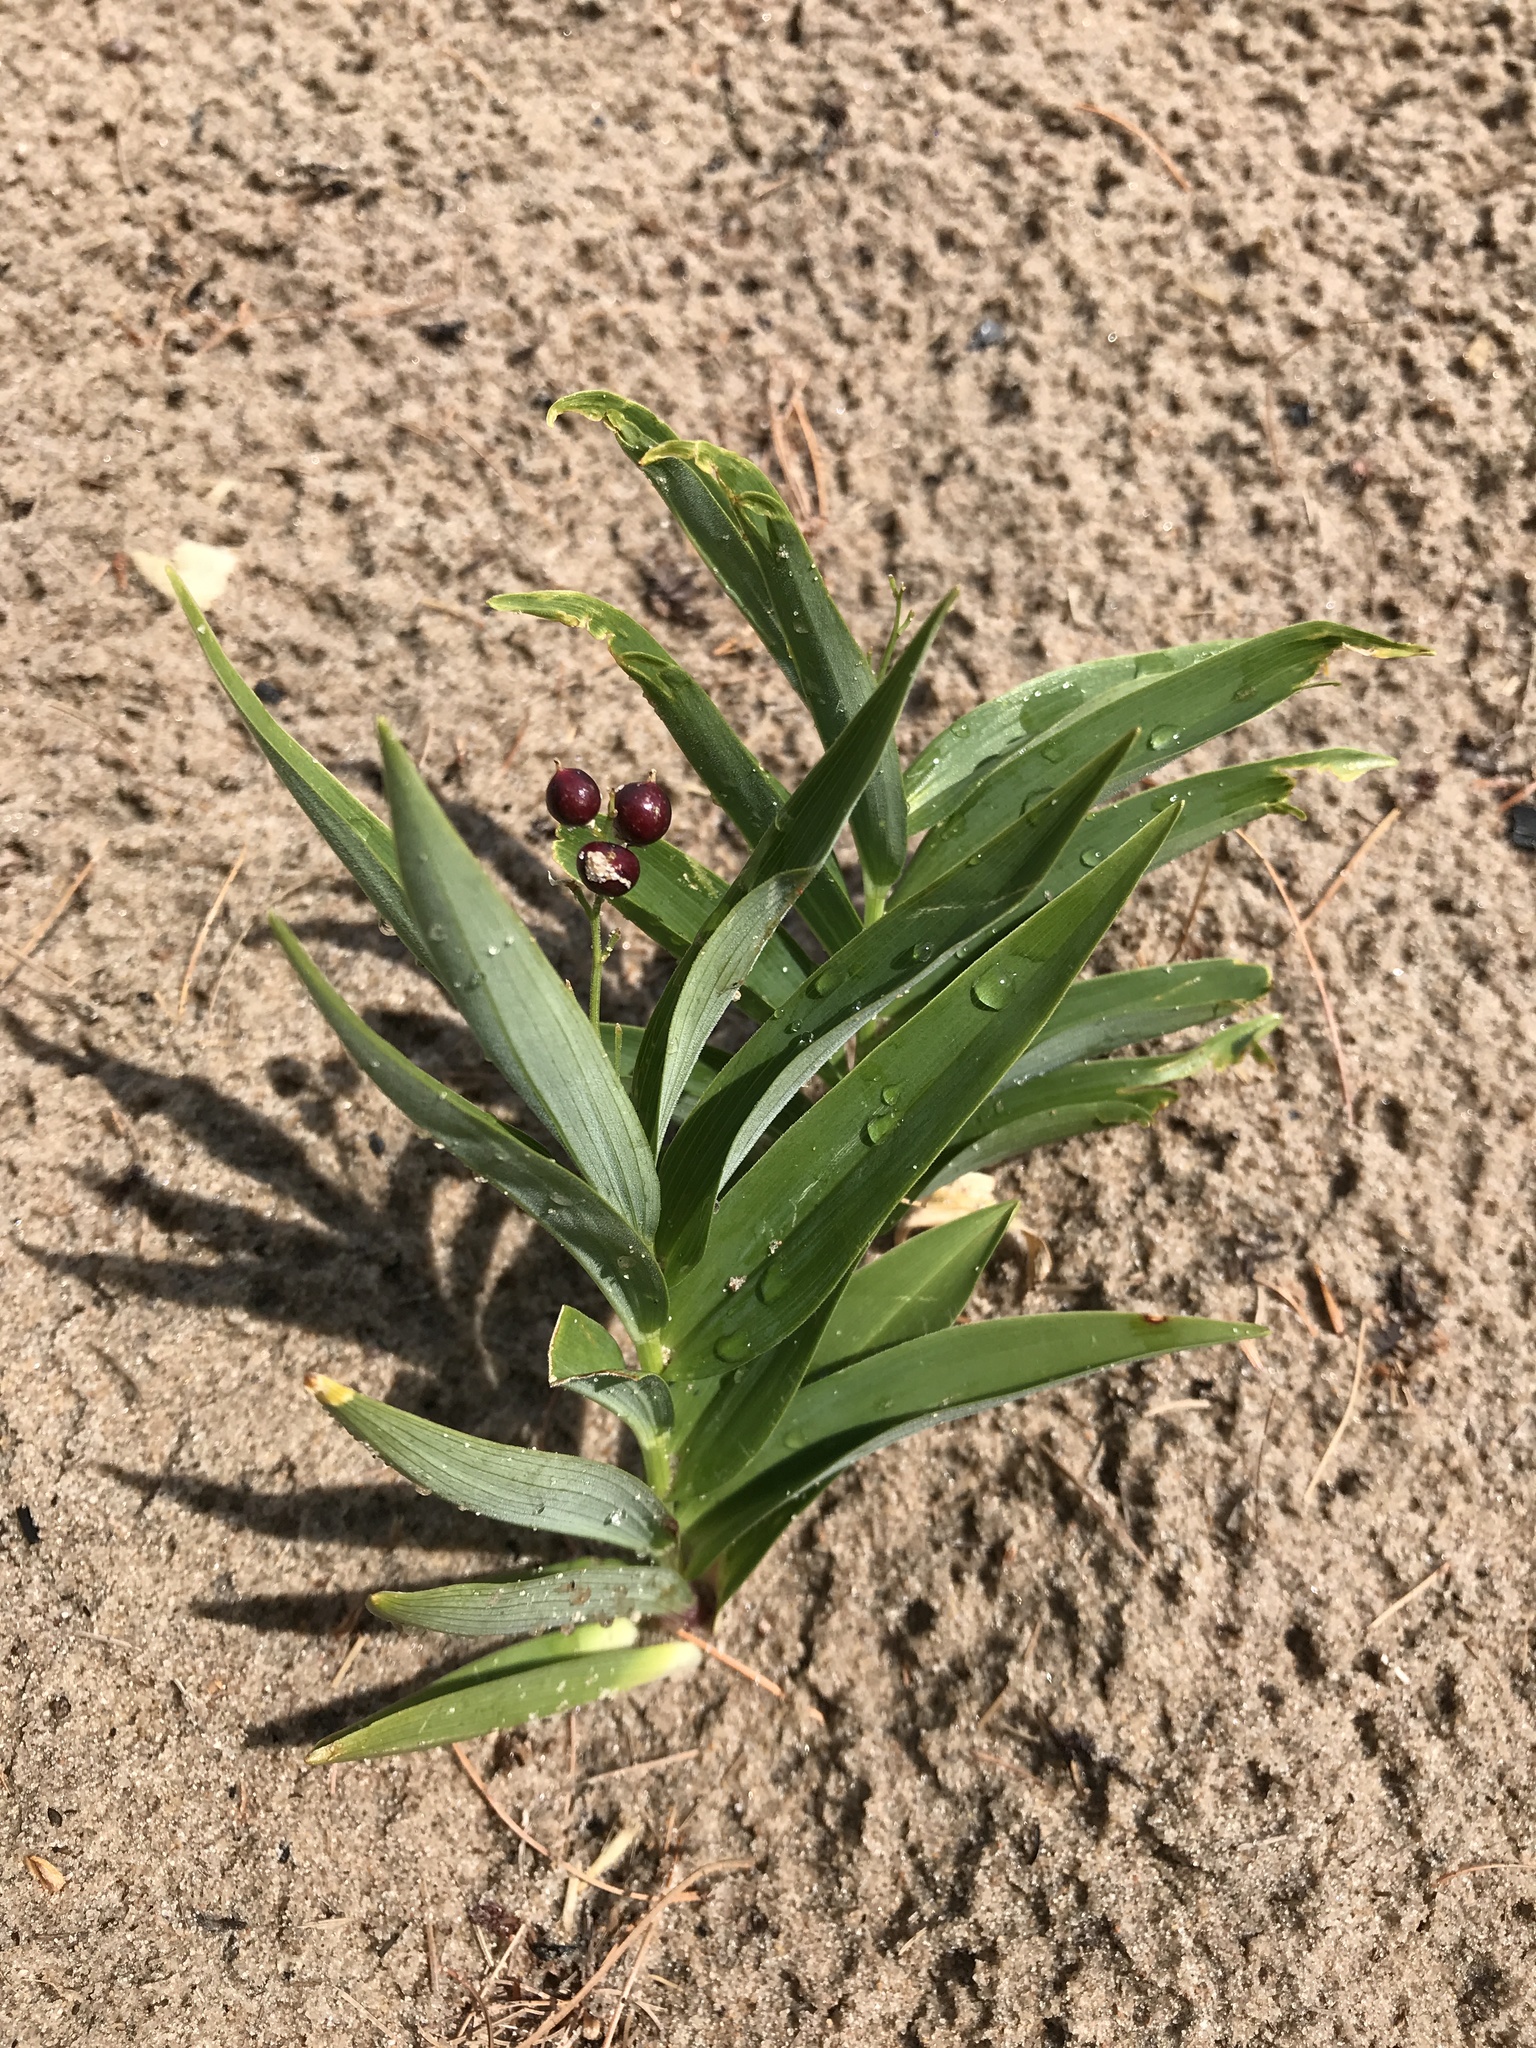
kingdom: Plantae
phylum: Tracheophyta
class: Liliopsida
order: Asparagales
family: Asparagaceae
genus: Maianthemum
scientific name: Maianthemum stellatum
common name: Little false solomon's seal
